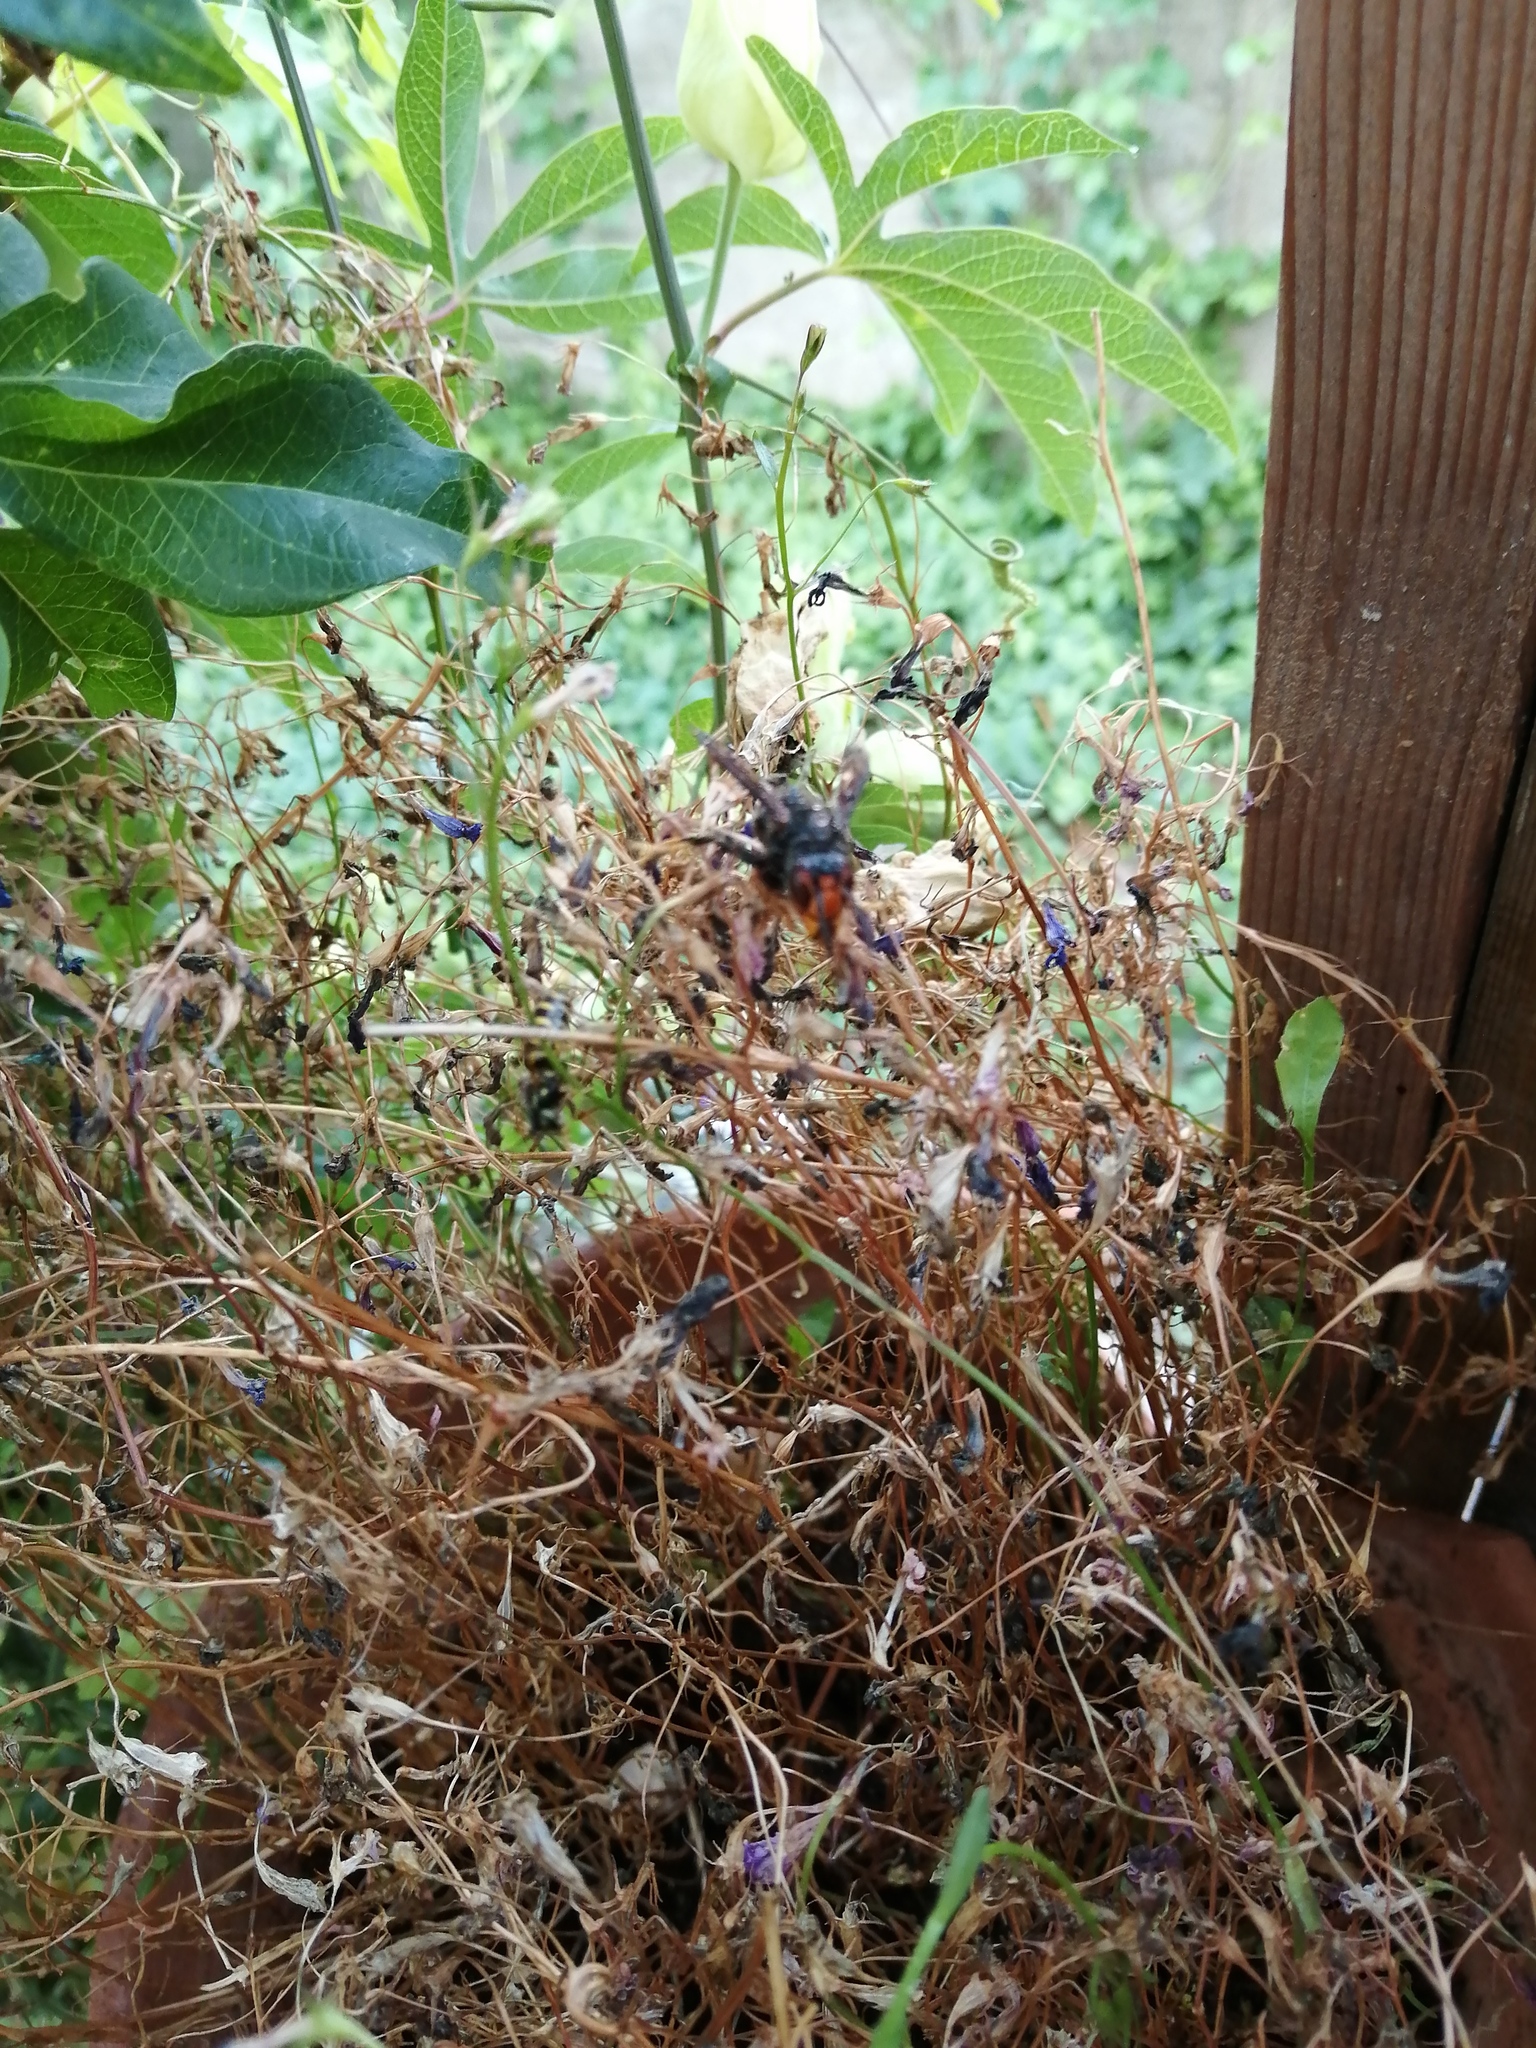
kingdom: Animalia
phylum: Arthropoda
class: Insecta
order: Hymenoptera
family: Vespidae
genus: Vespa
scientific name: Vespa velutina
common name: Asian hornet
